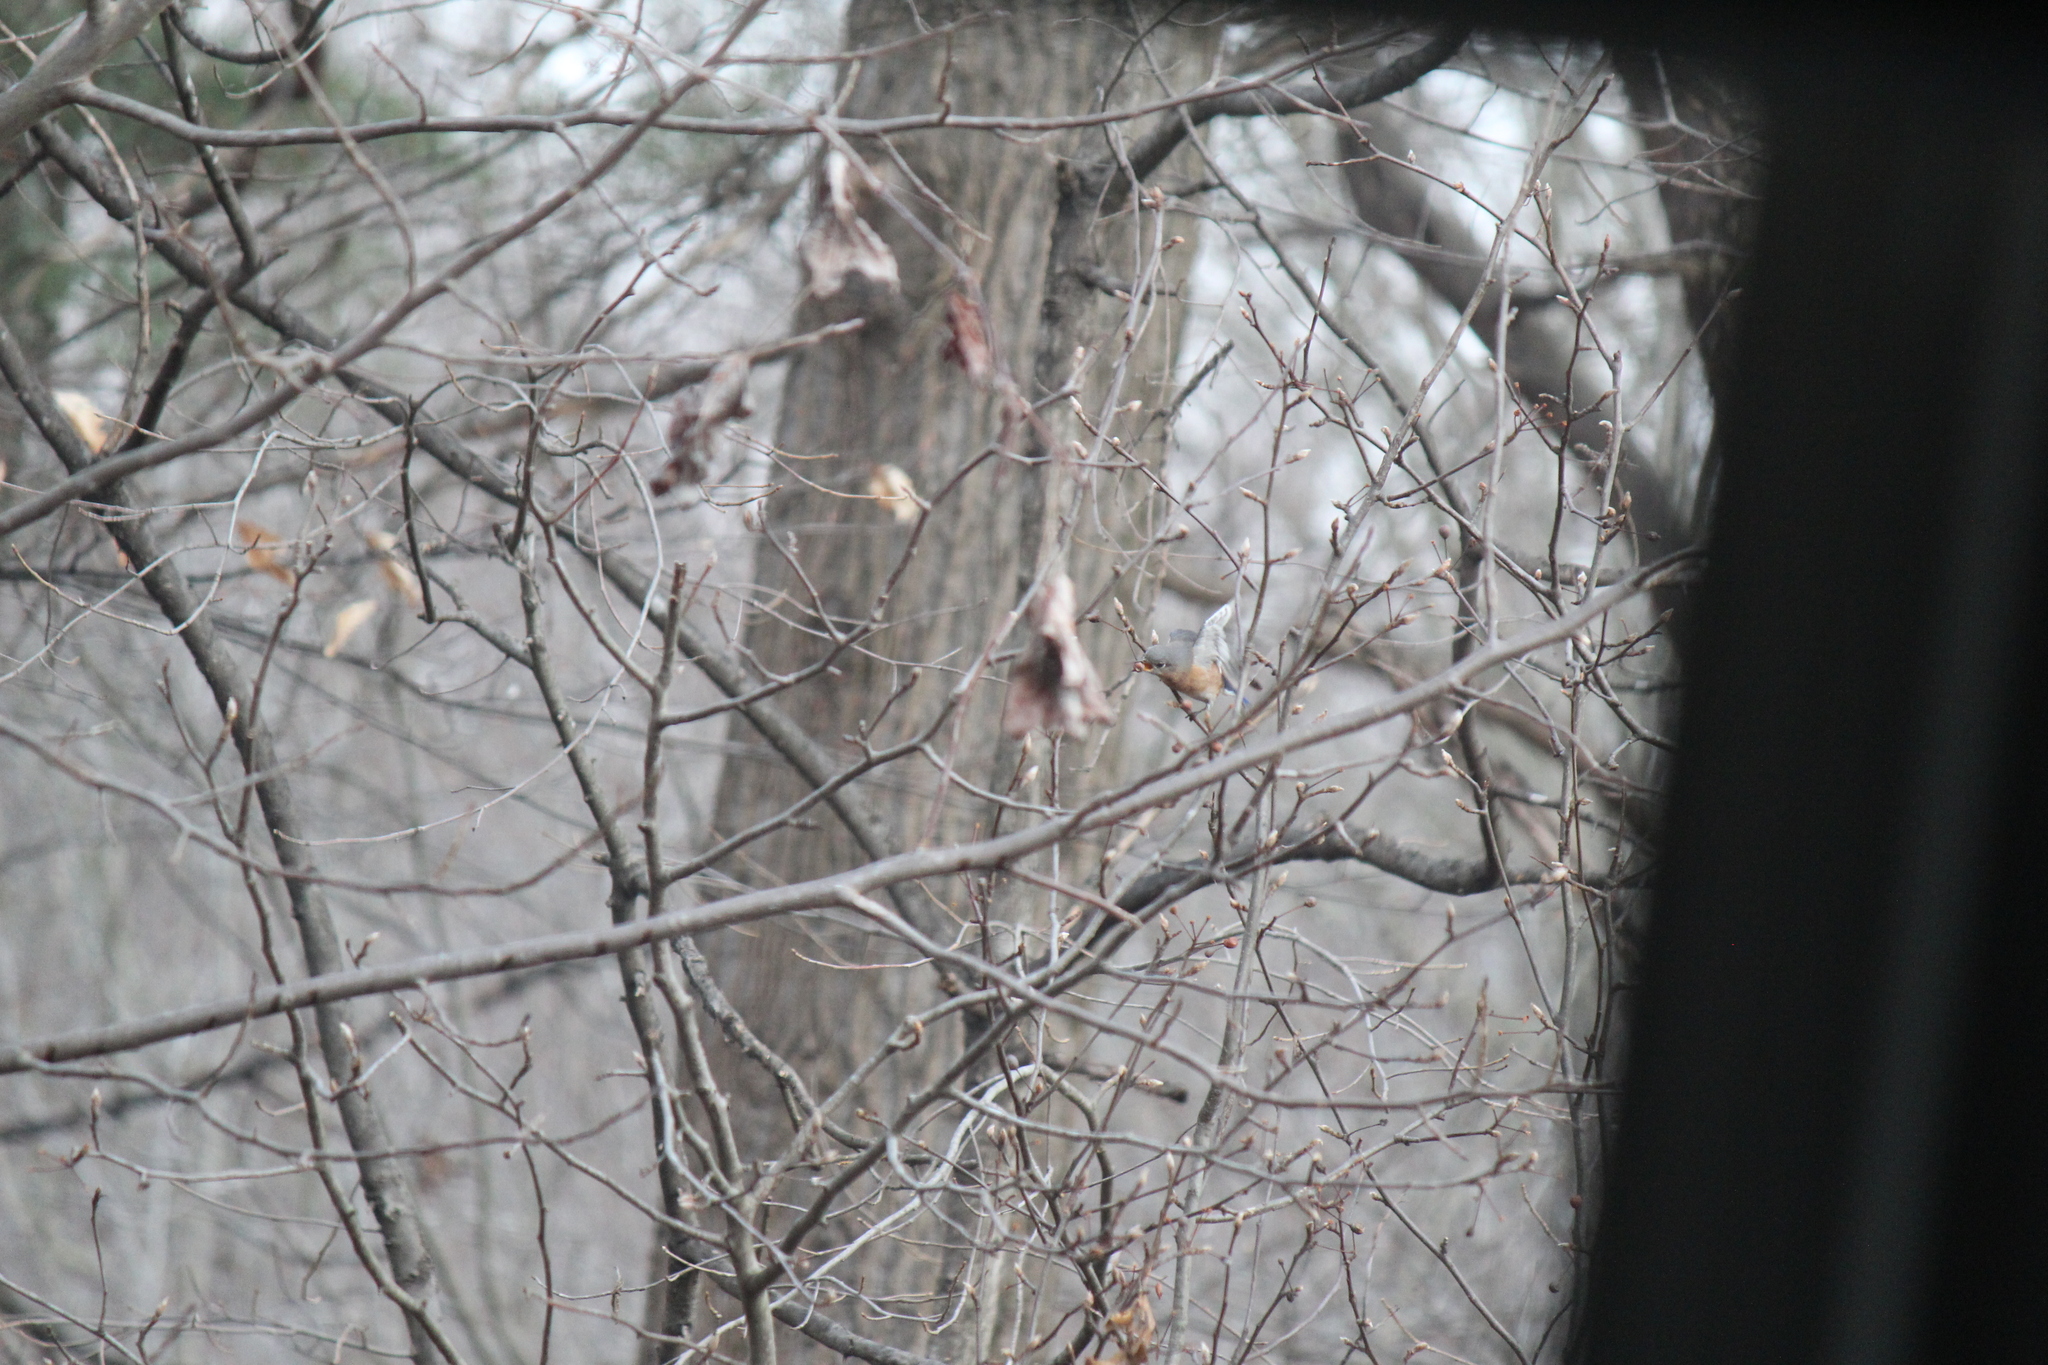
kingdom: Animalia
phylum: Chordata
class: Aves
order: Passeriformes
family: Turdidae
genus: Sialia
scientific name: Sialia sialis
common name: Eastern bluebird
